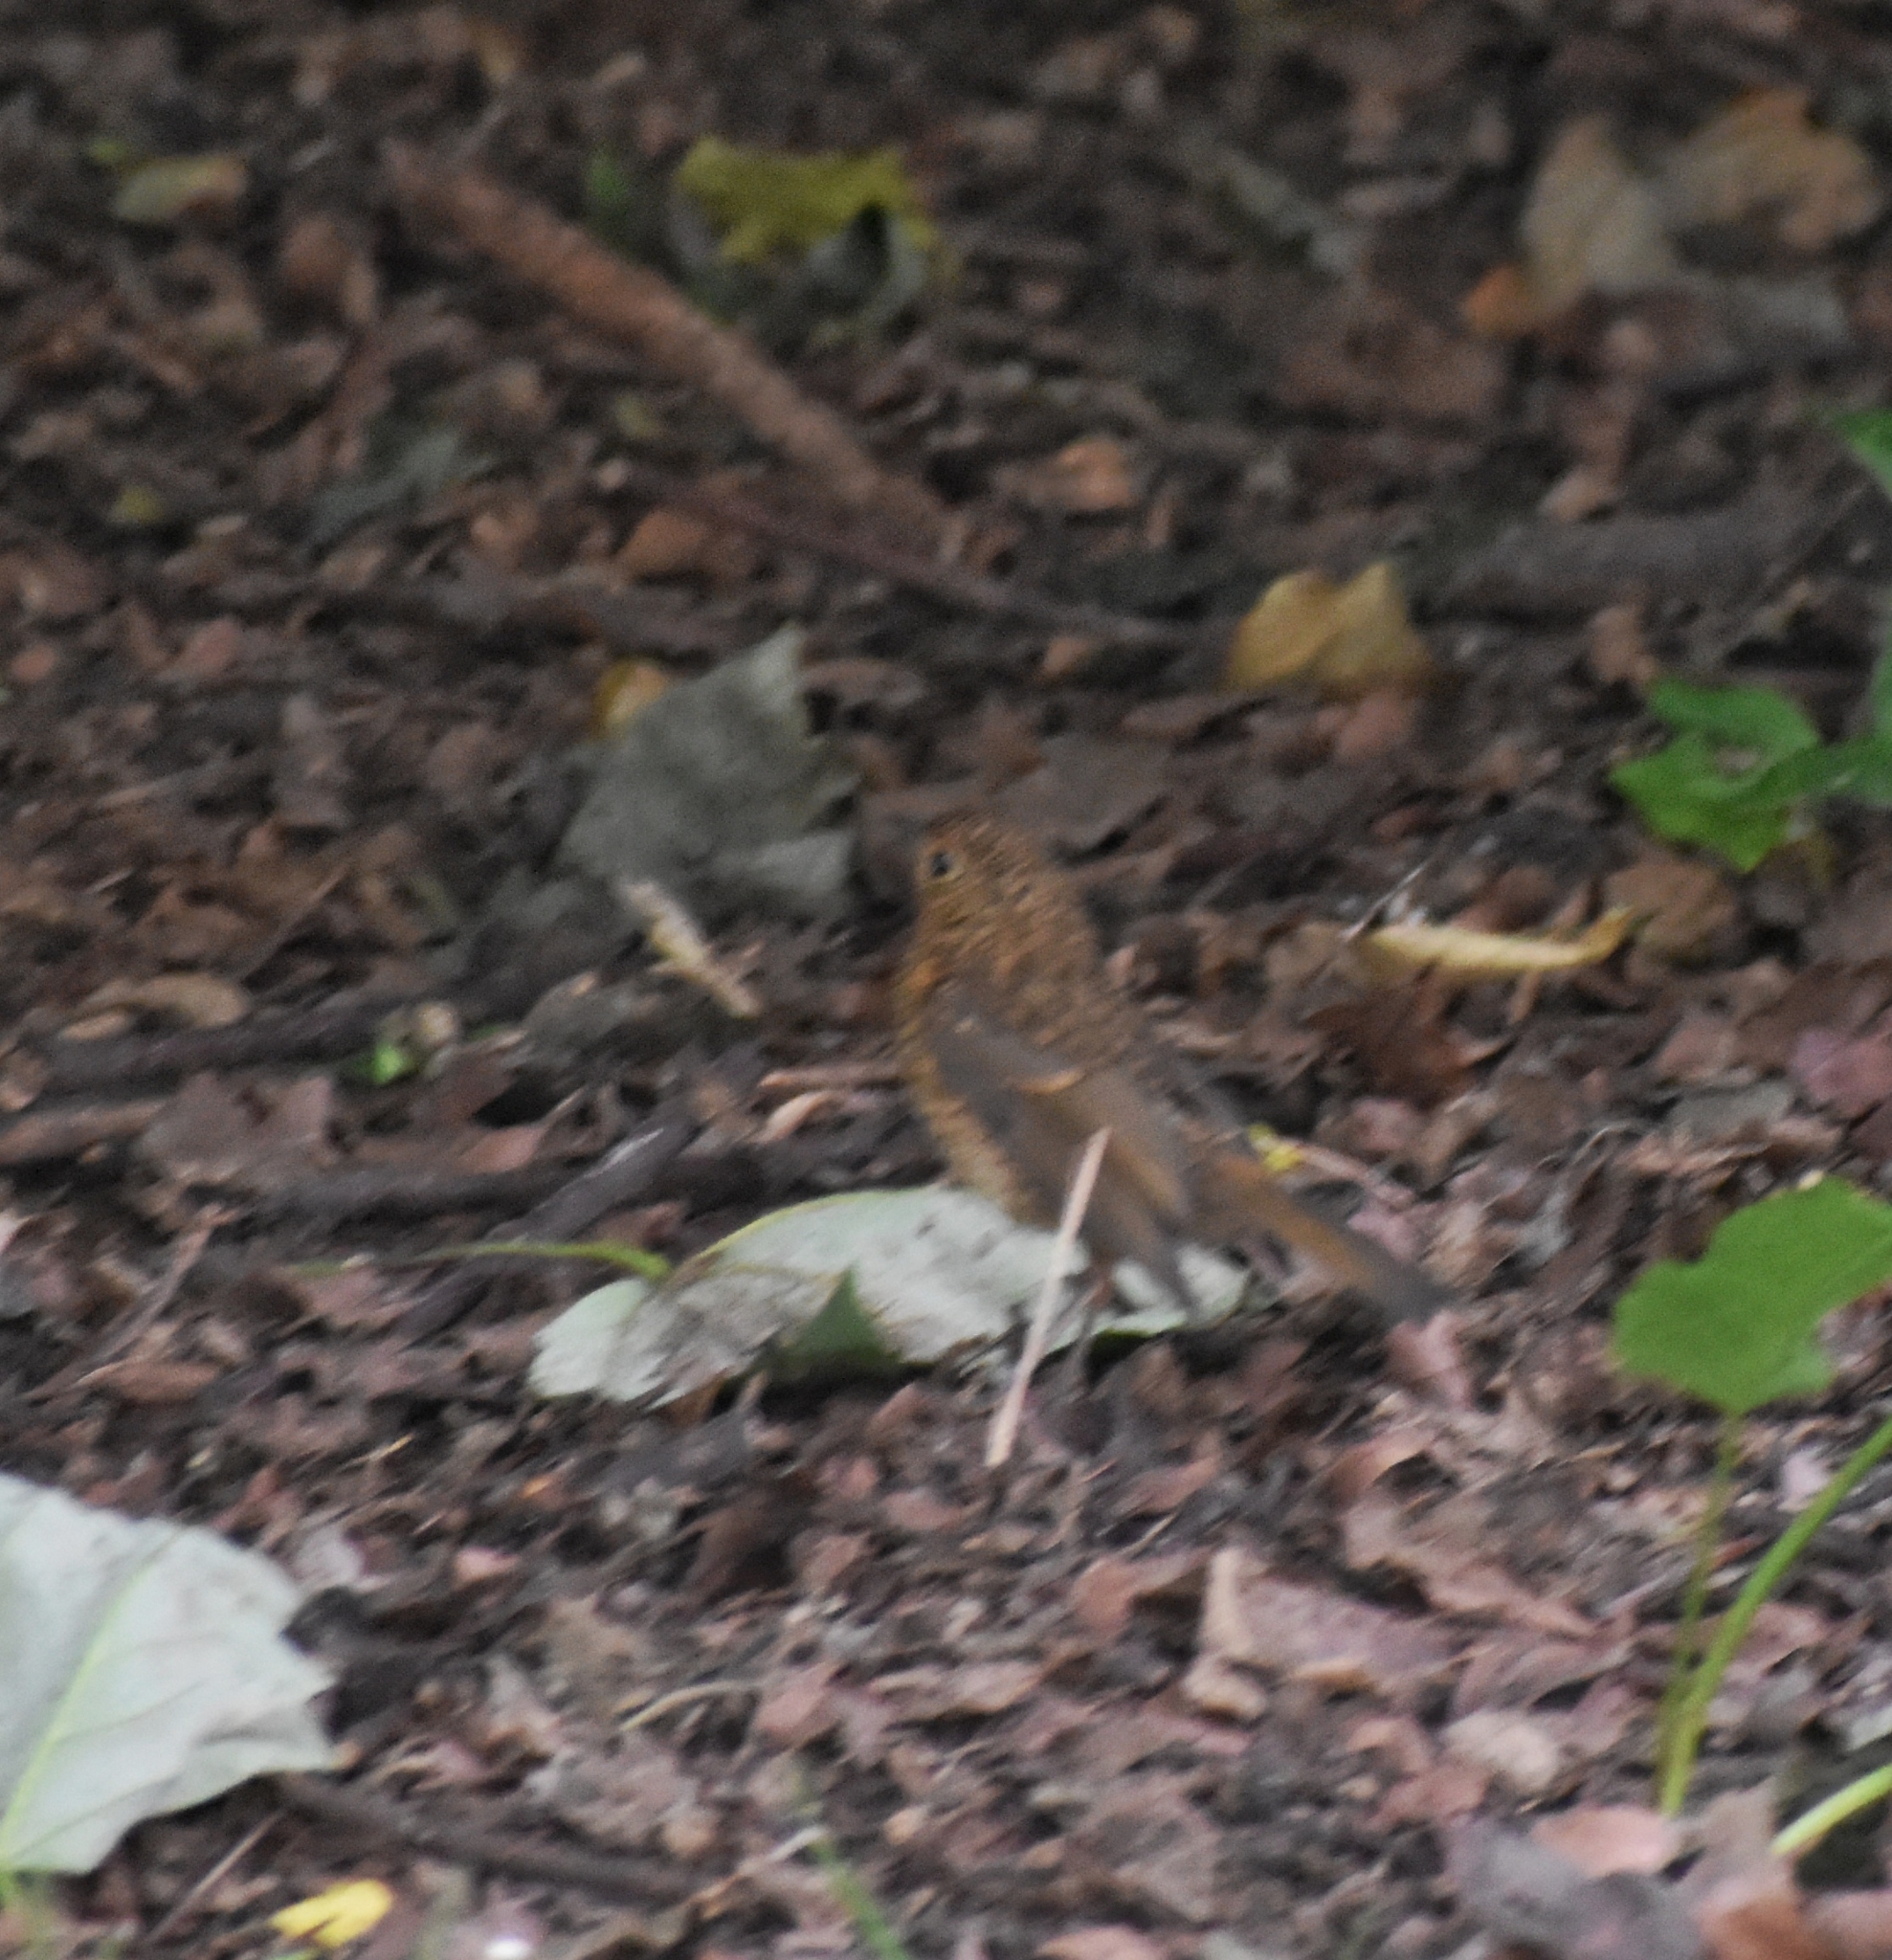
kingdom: Animalia
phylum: Chordata
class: Aves
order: Passeriformes
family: Muscicapidae
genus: Erithacus
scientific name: Erithacus rubecula
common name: European robin
